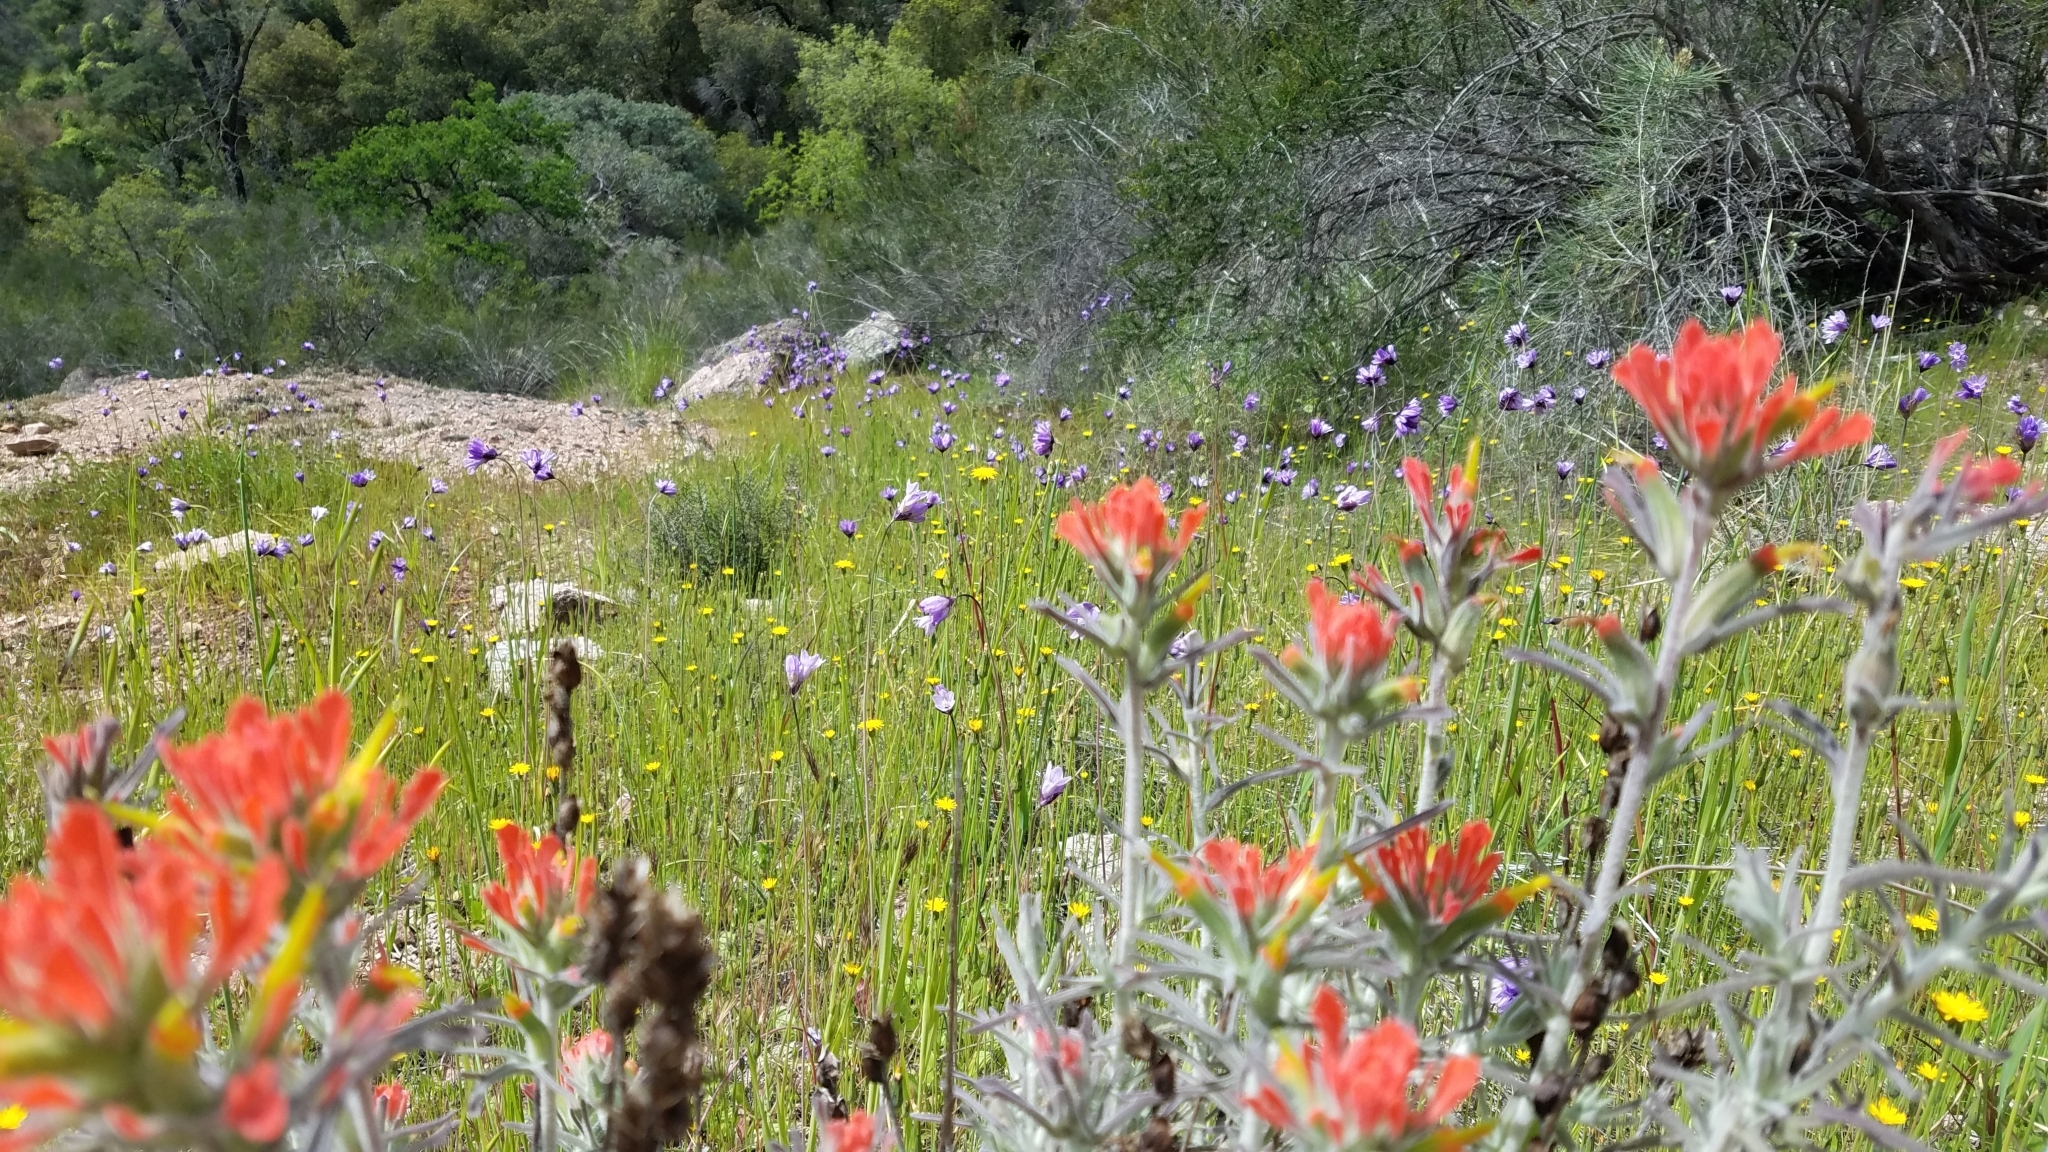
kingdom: Plantae
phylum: Tracheophyta
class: Magnoliopsida
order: Lamiales
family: Orobanchaceae
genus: Castilleja
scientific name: Castilleja foliolosa
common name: Woolly indian paintbrush
